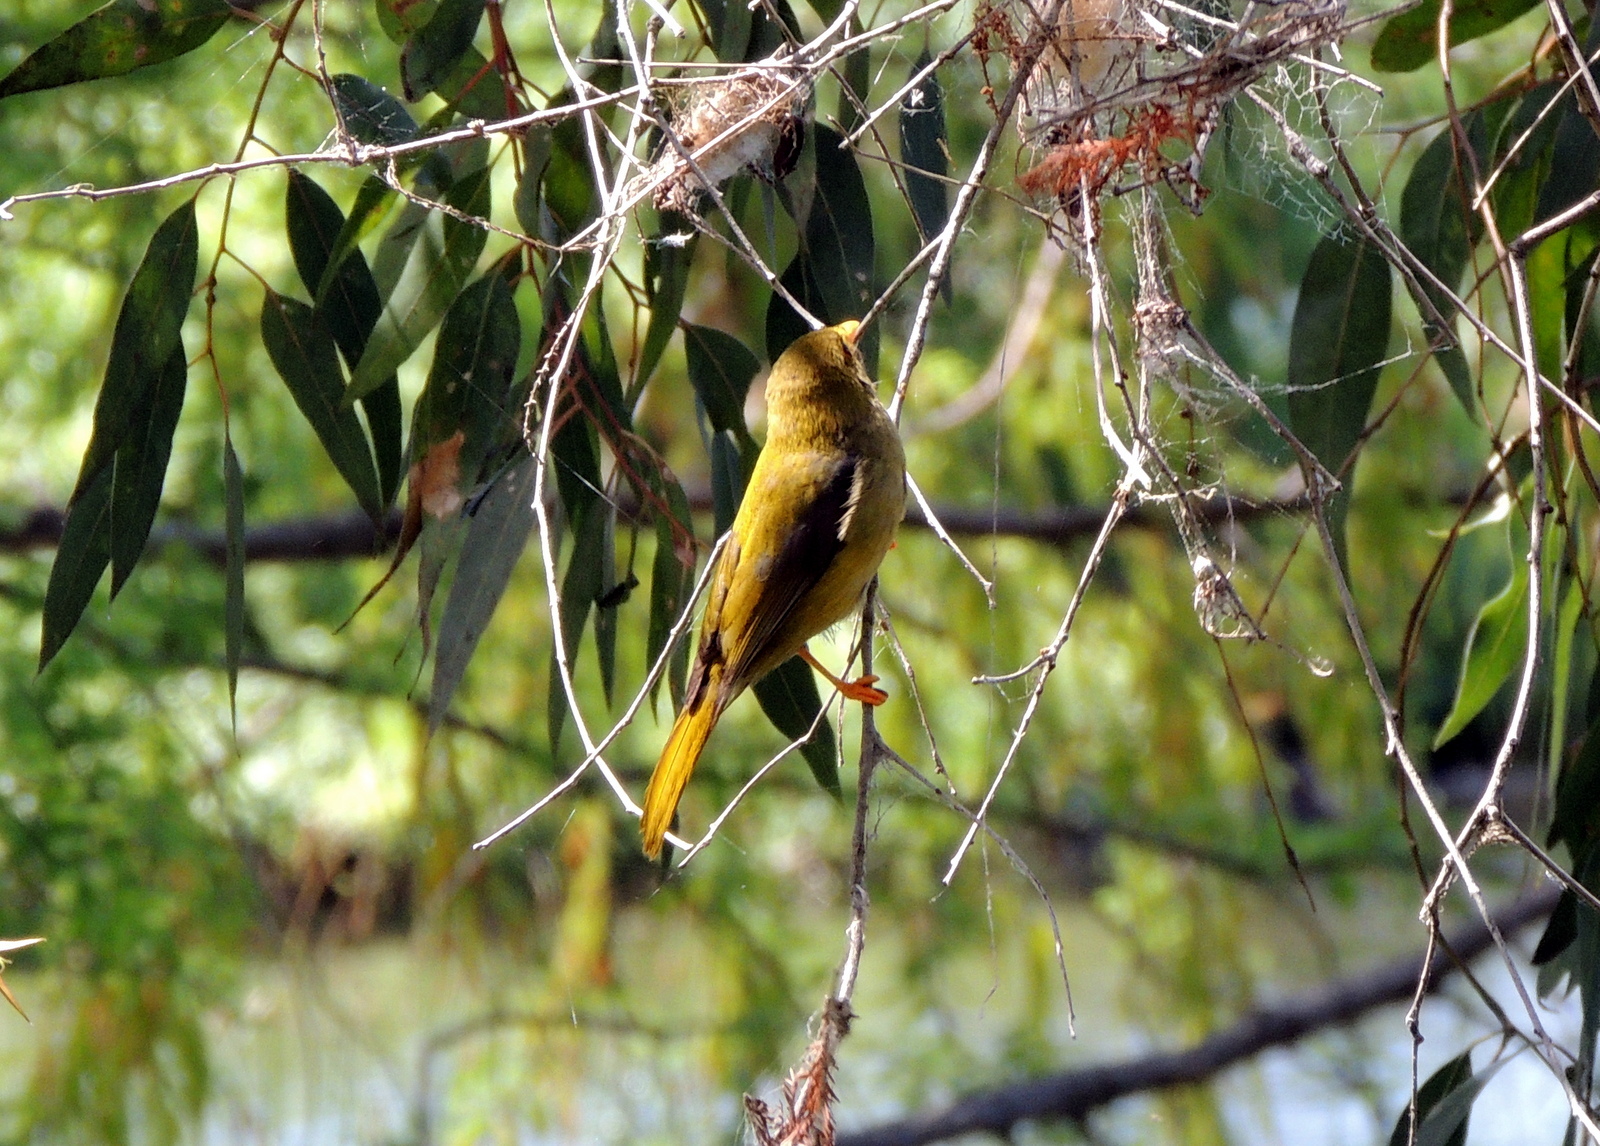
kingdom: Animalia
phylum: Chordata
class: Aves
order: Passeriformes
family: Meliphagidae
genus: Manorina
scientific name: Manorina melanophrys
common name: Bell miner
